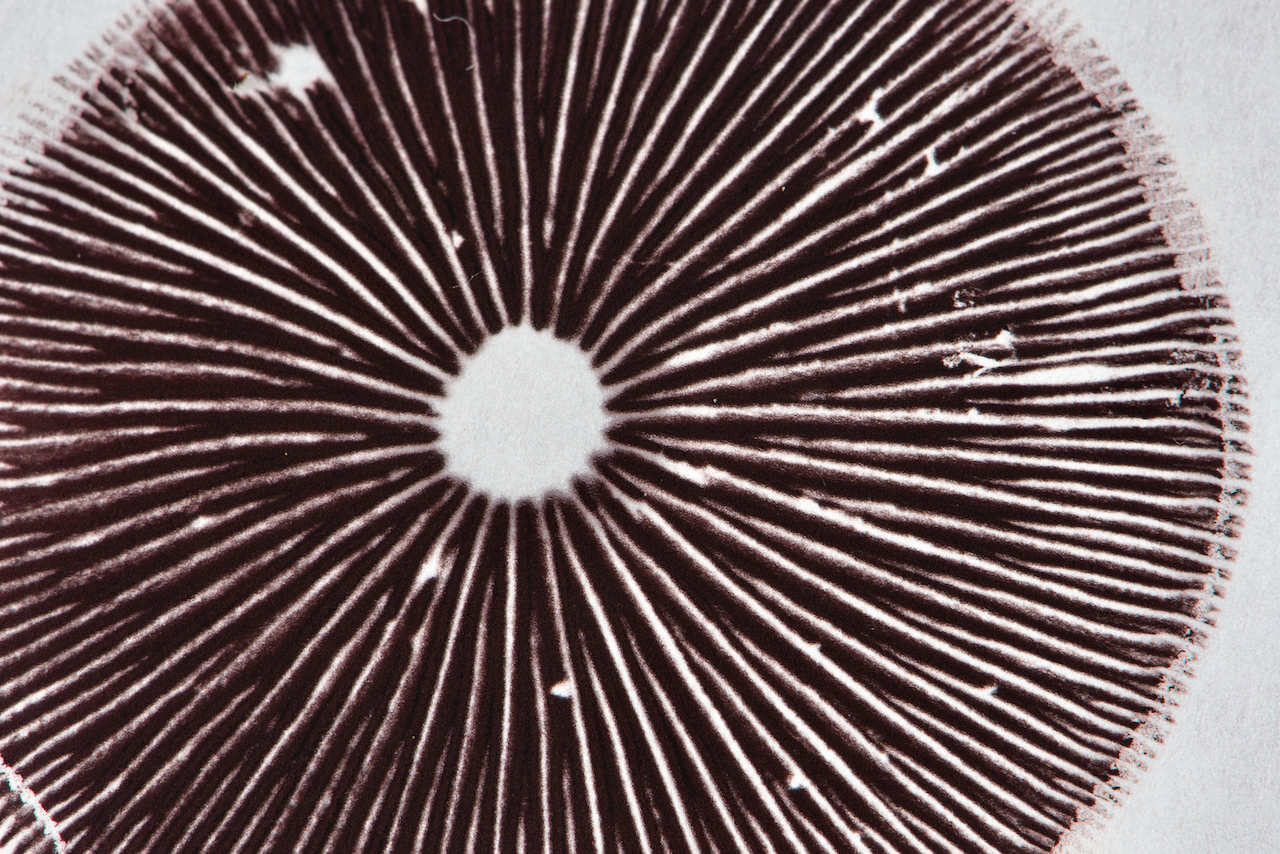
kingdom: Fungi
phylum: Basidiomycota
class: Agaricomycetes
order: Agaricales
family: Hymenogastraceae
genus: Psilocybe
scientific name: Psilocybe tuberifera
